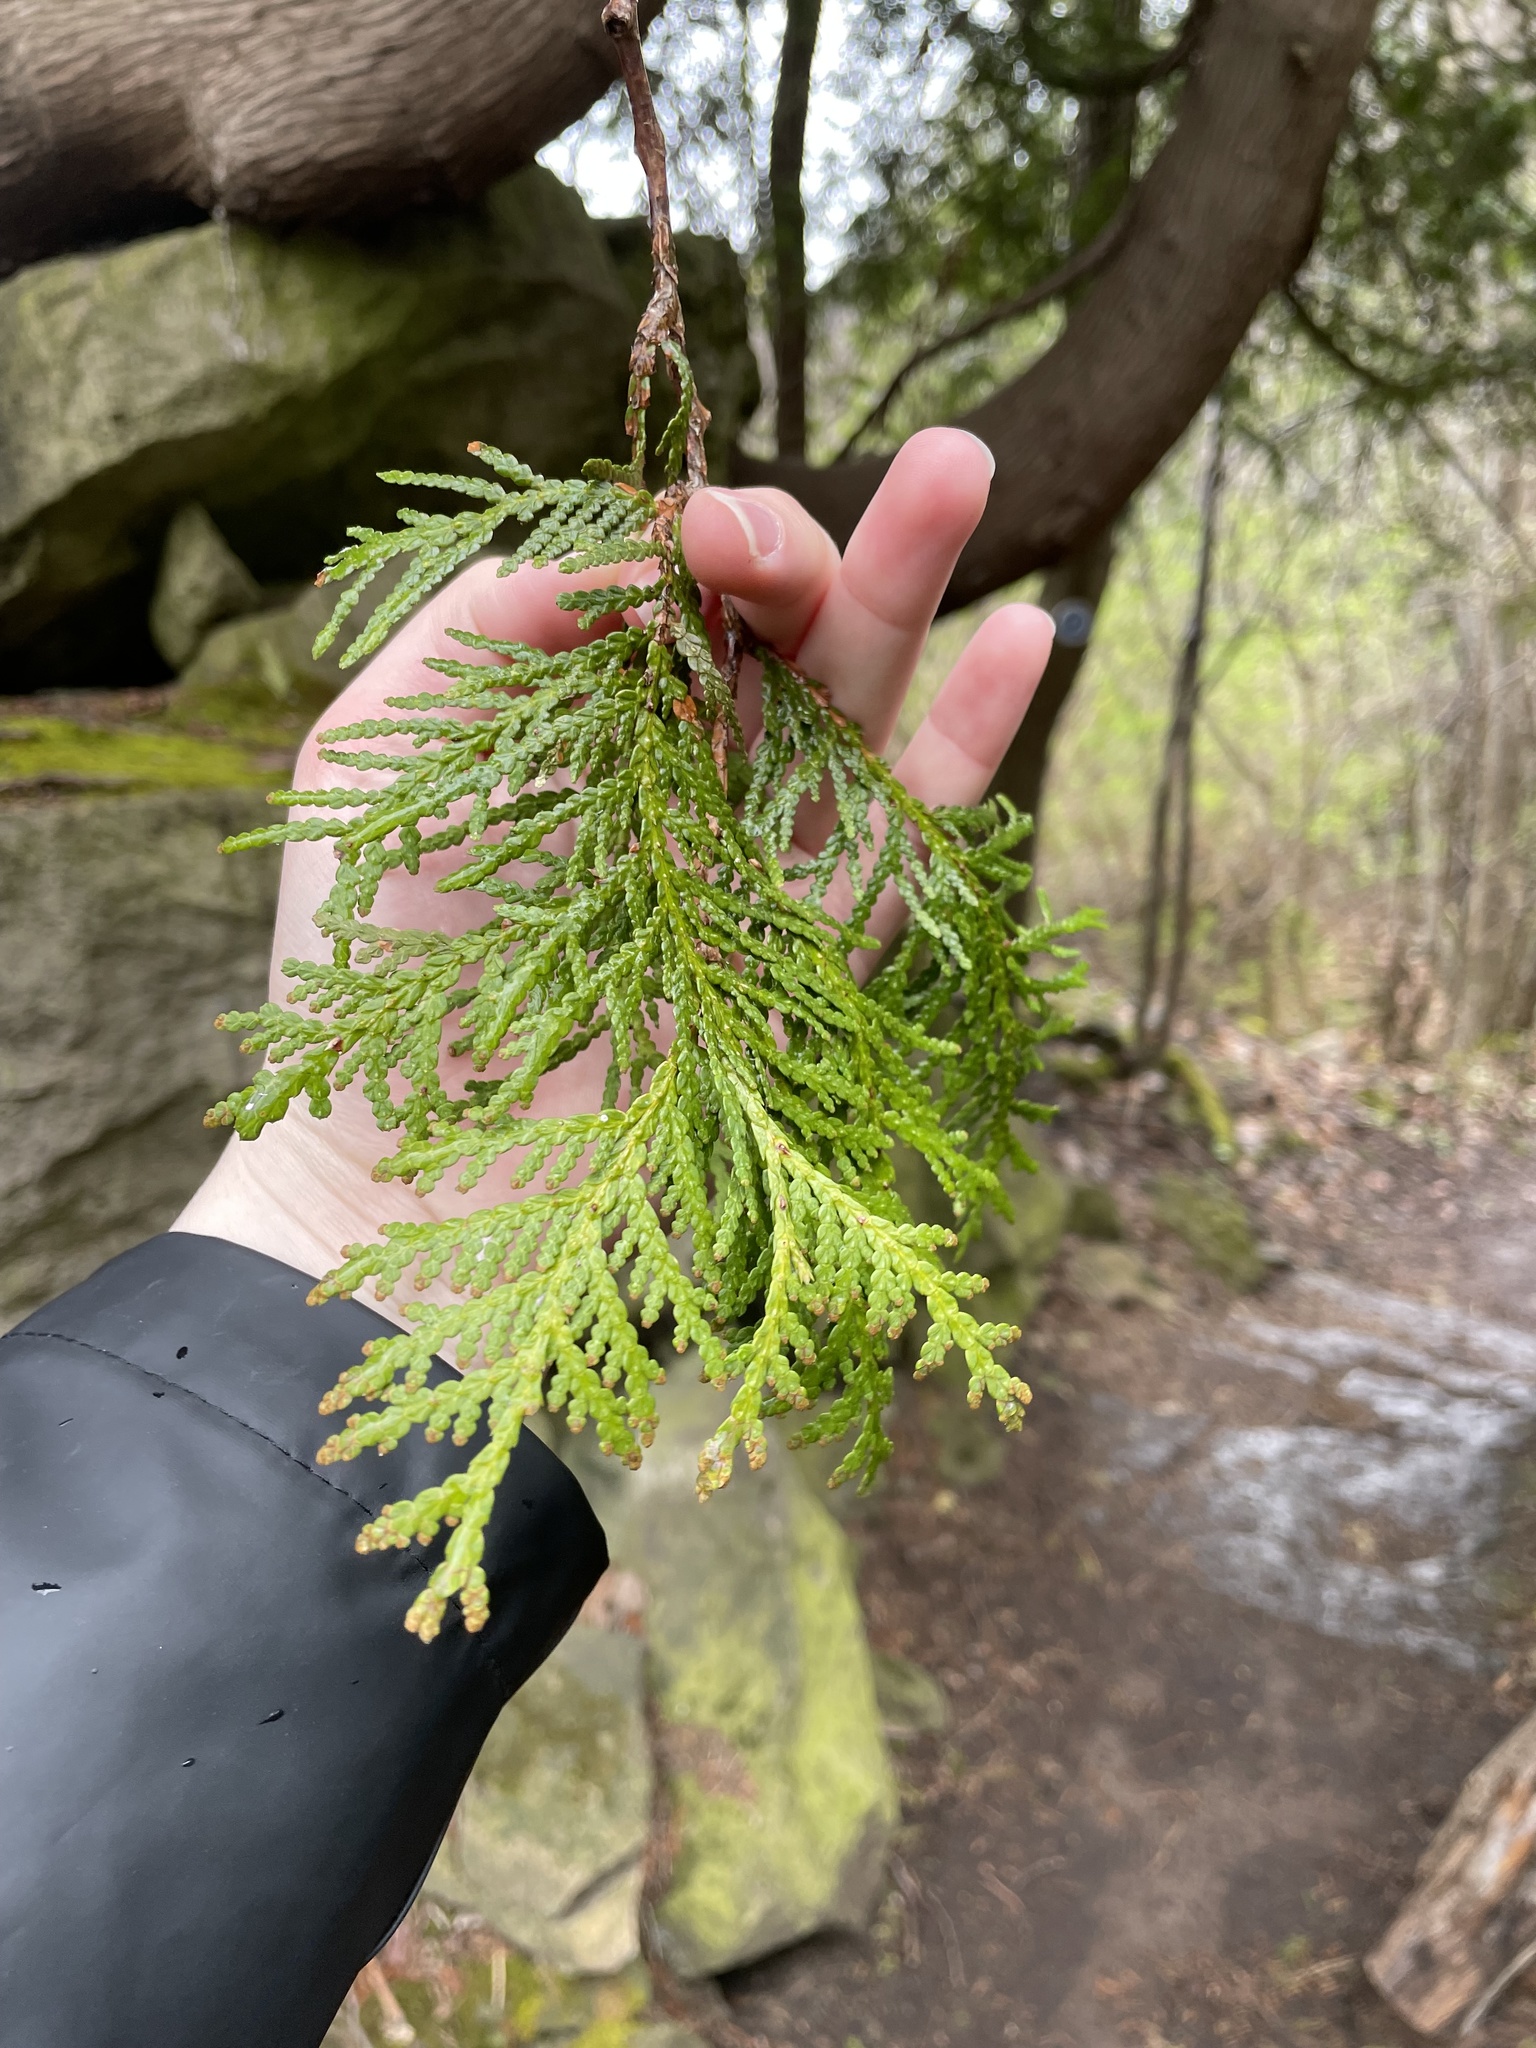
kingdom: Plantae
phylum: Tracheophyta
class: Pinopsida
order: Pinales
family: Cupressaceae
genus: Thuja
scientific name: Thuja occidentalis
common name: Northern white-cedar
